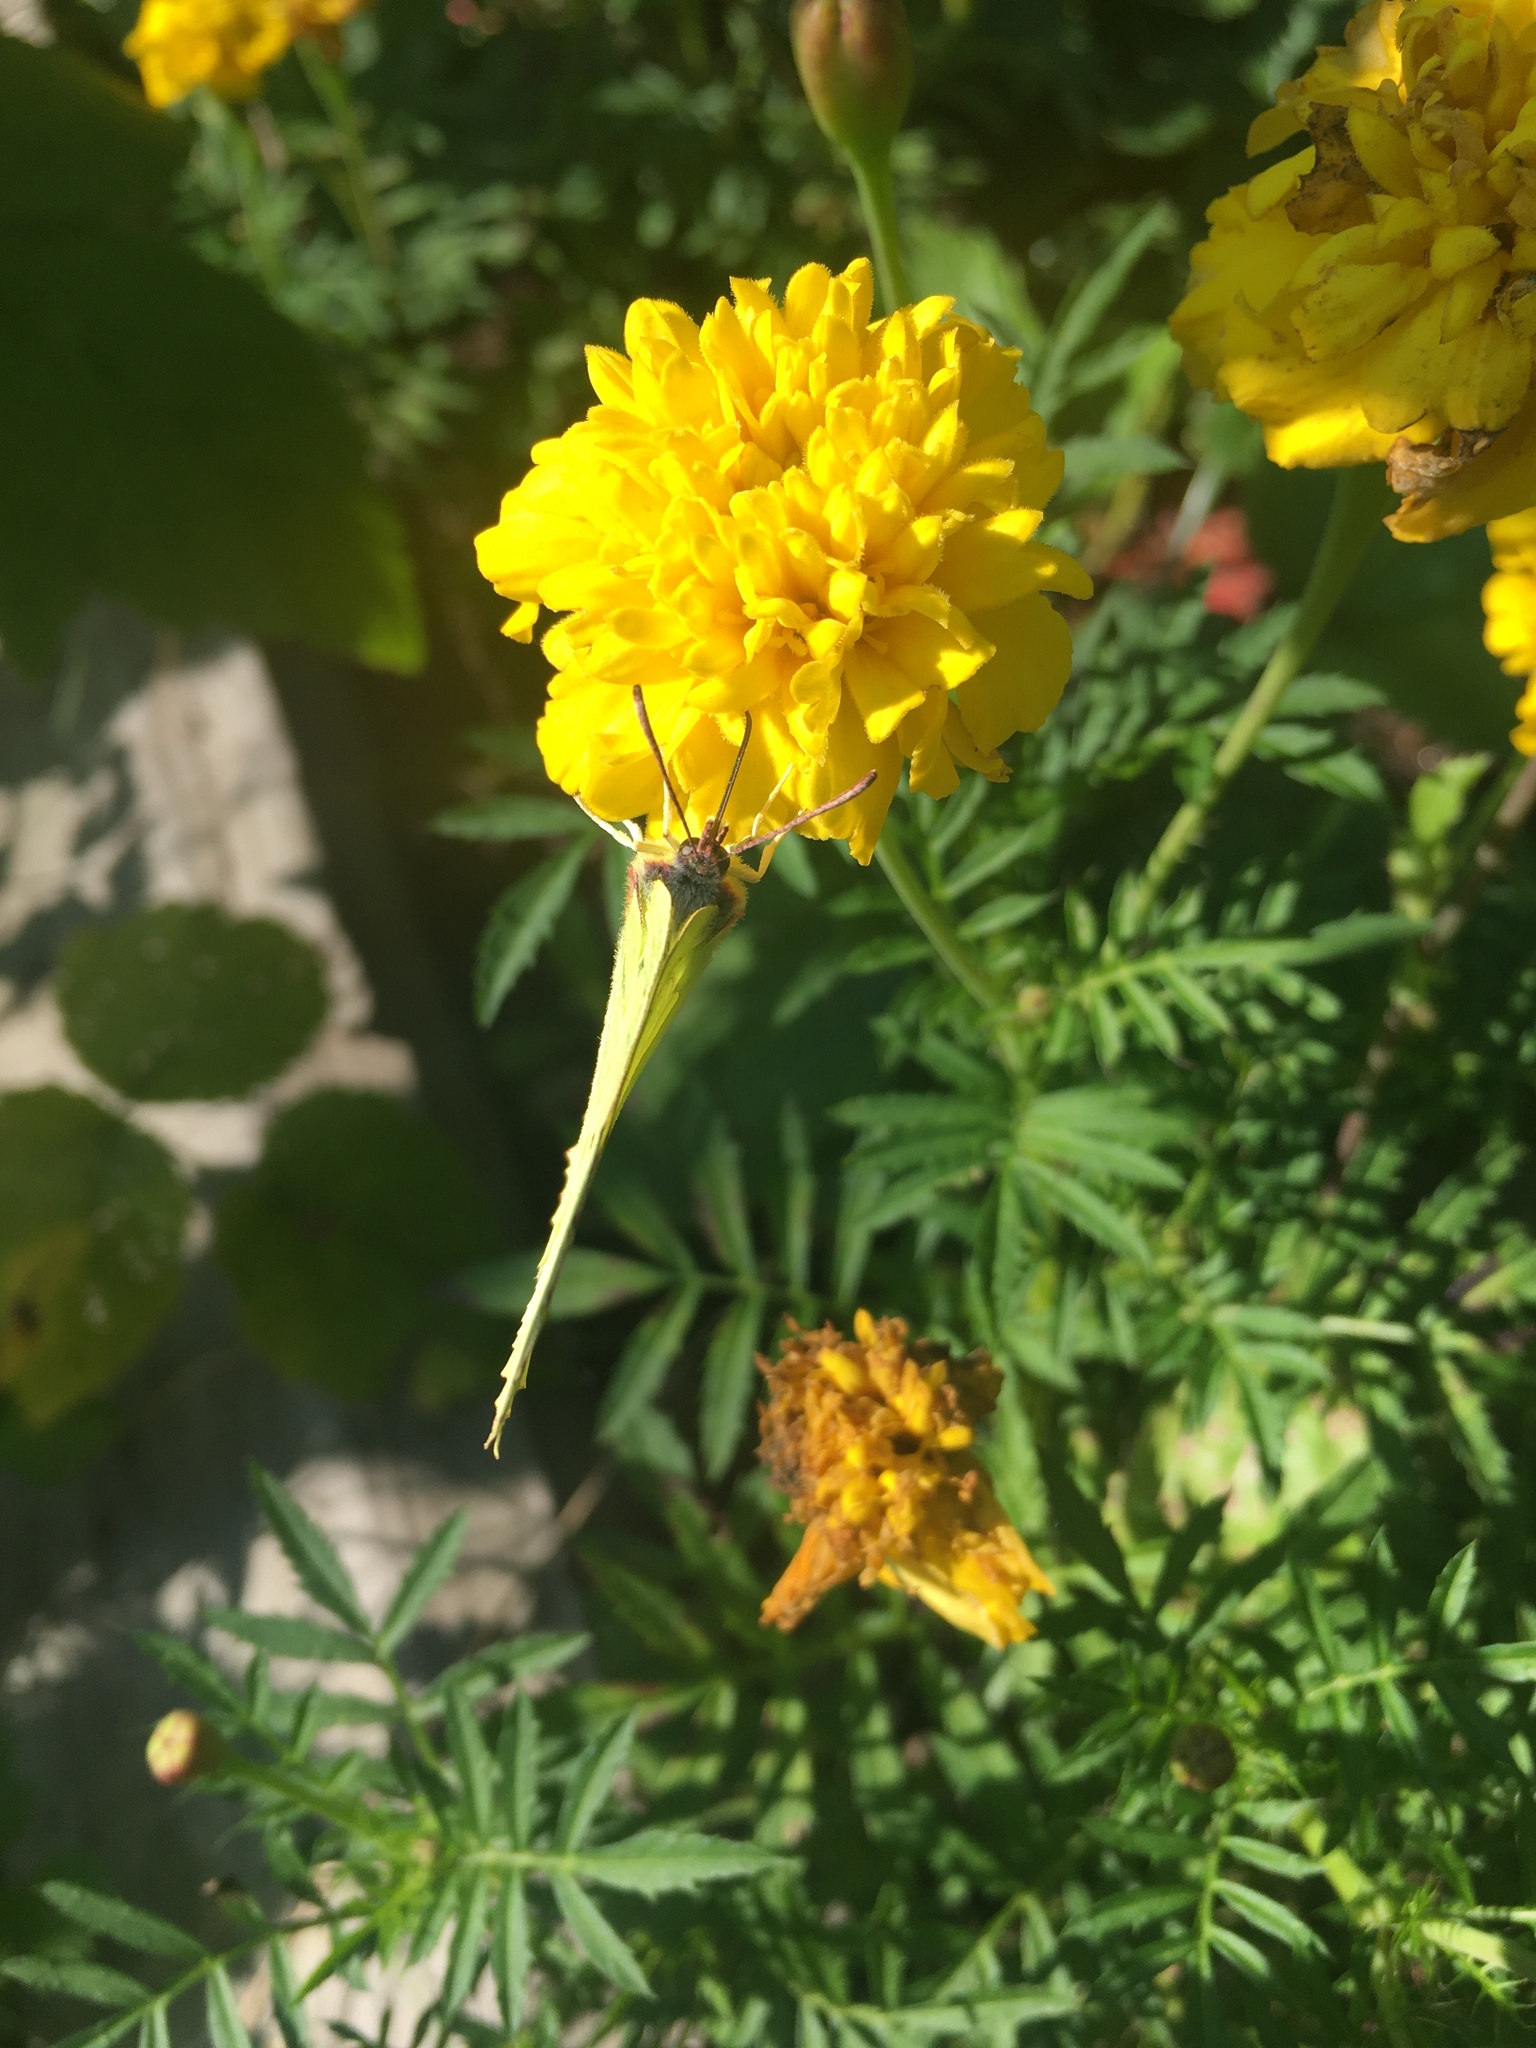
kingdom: Animalia
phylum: Arthropoda
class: Insecta
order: Lepidoptera
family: Pieridae
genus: Gonepteryx
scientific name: Gonepteryx rhamni
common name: Brimstone
